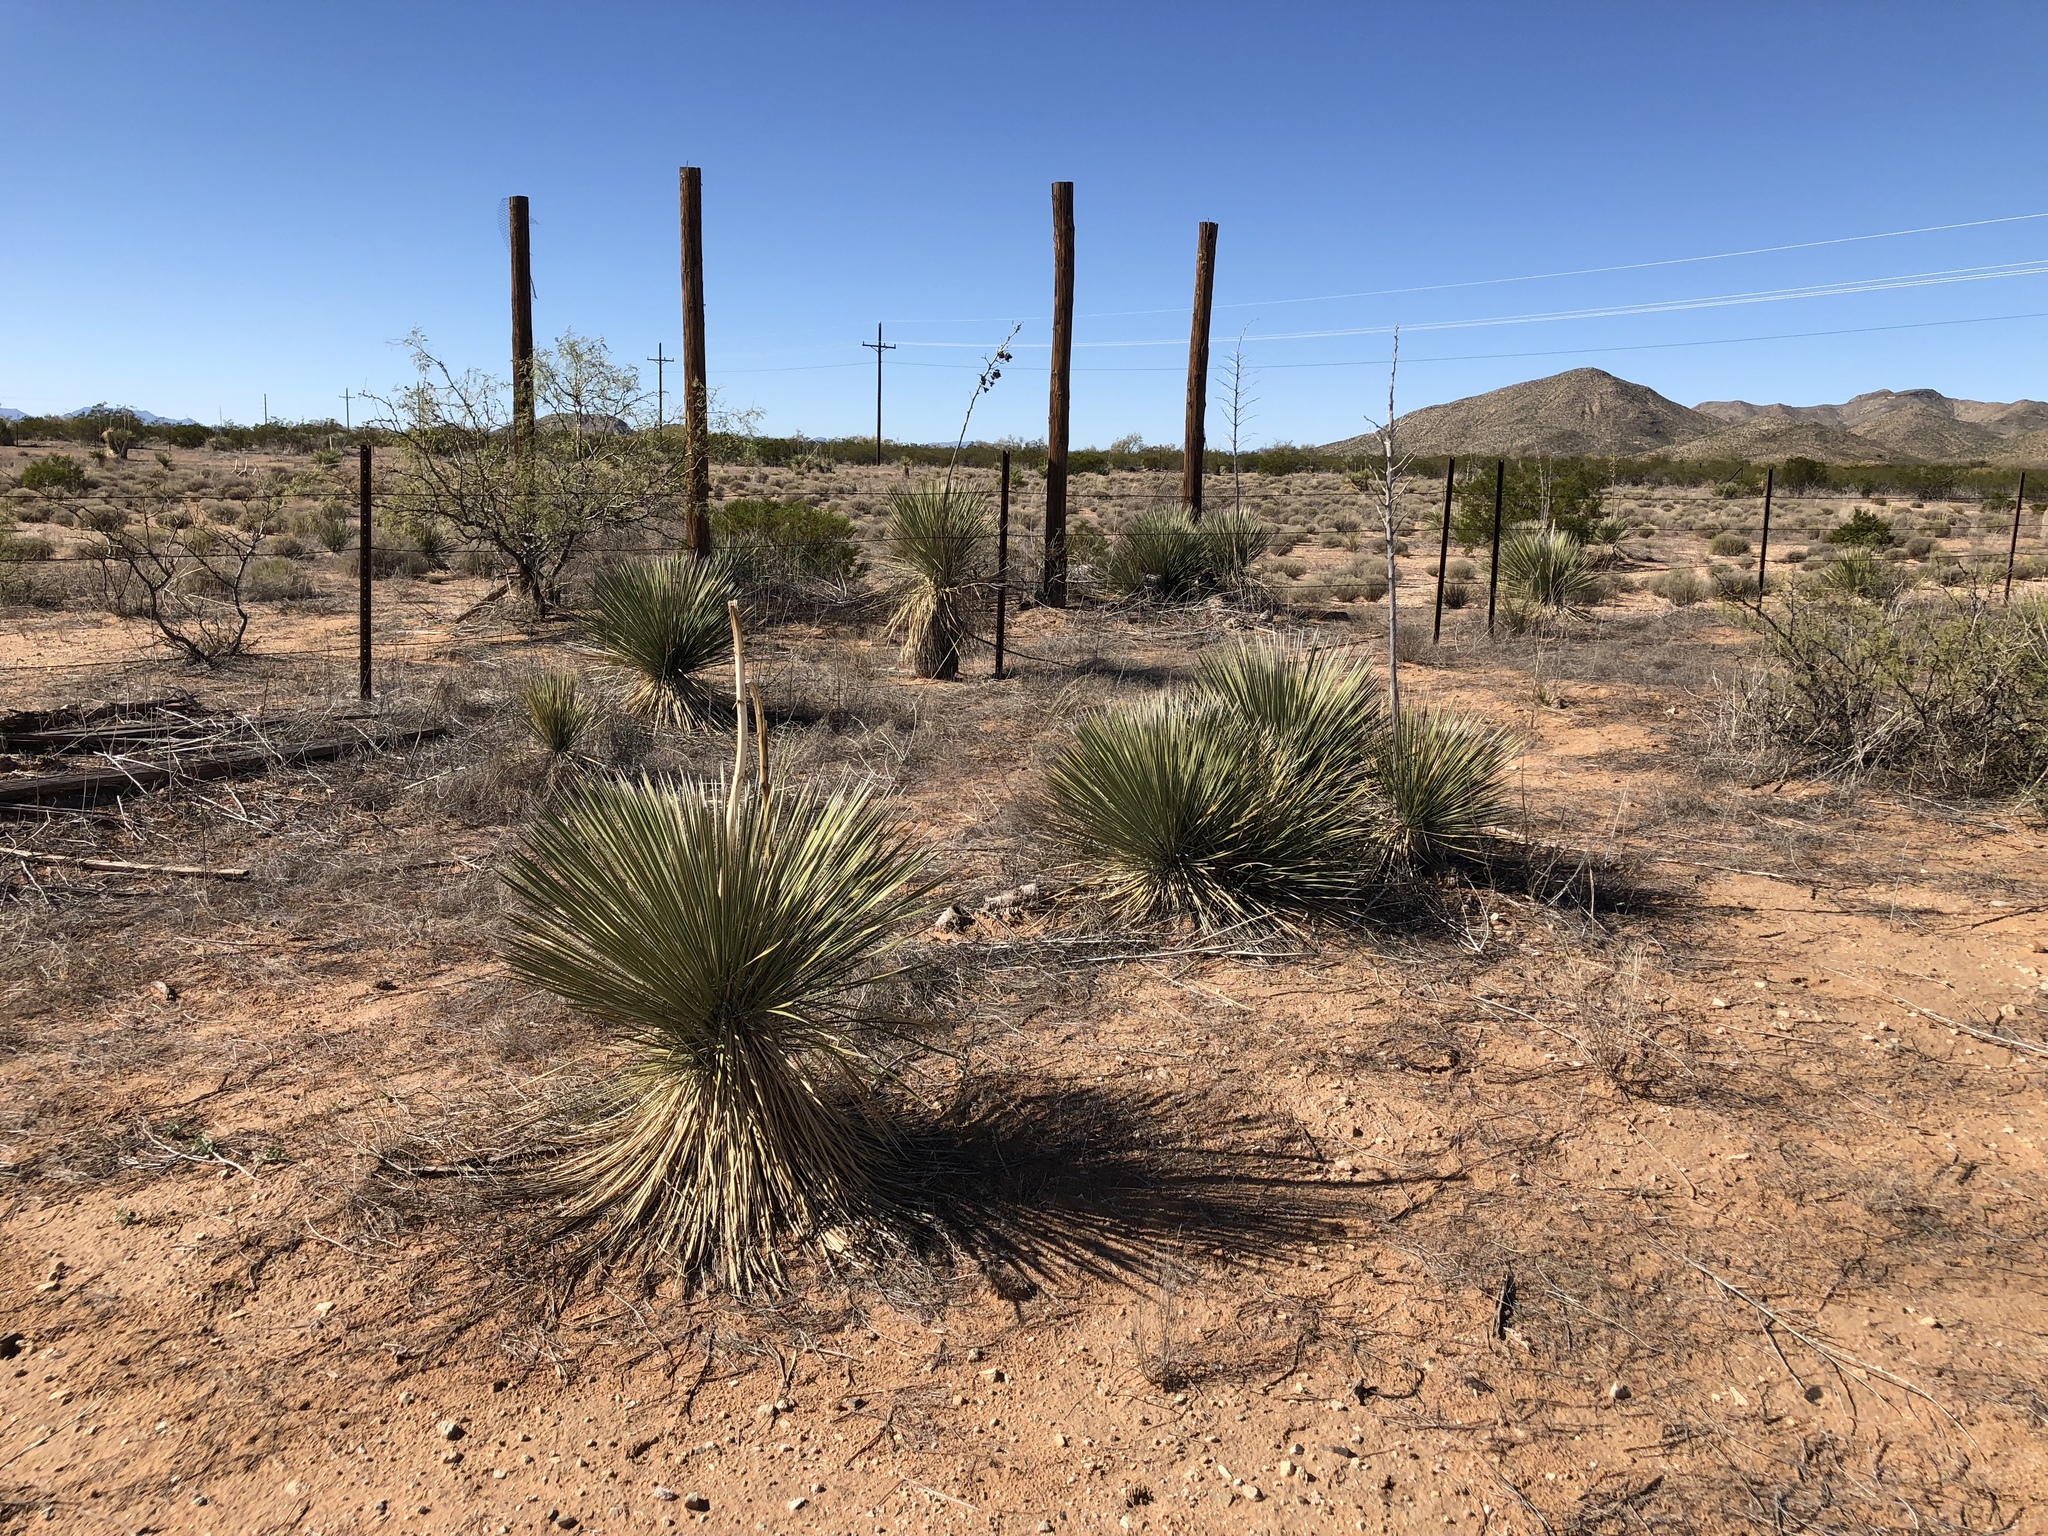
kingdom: Plantae
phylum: Tracheophyta
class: Liliopsida
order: Asparagales
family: Asparagaceae
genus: Yucca
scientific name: Yucca elata
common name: Palmella
